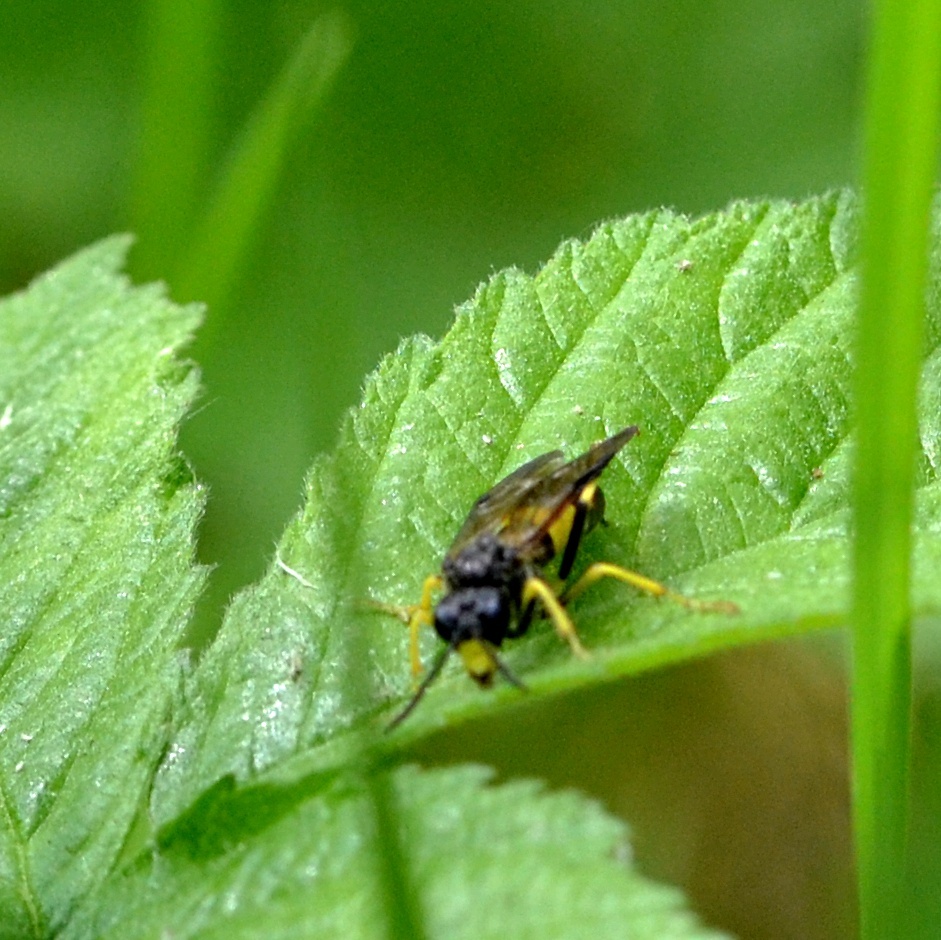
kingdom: Animalia
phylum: Arthropoda
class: Insecta
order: Hymenoptera
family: Tenthredinidae
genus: Tenthredo
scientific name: Tenthredo temula
